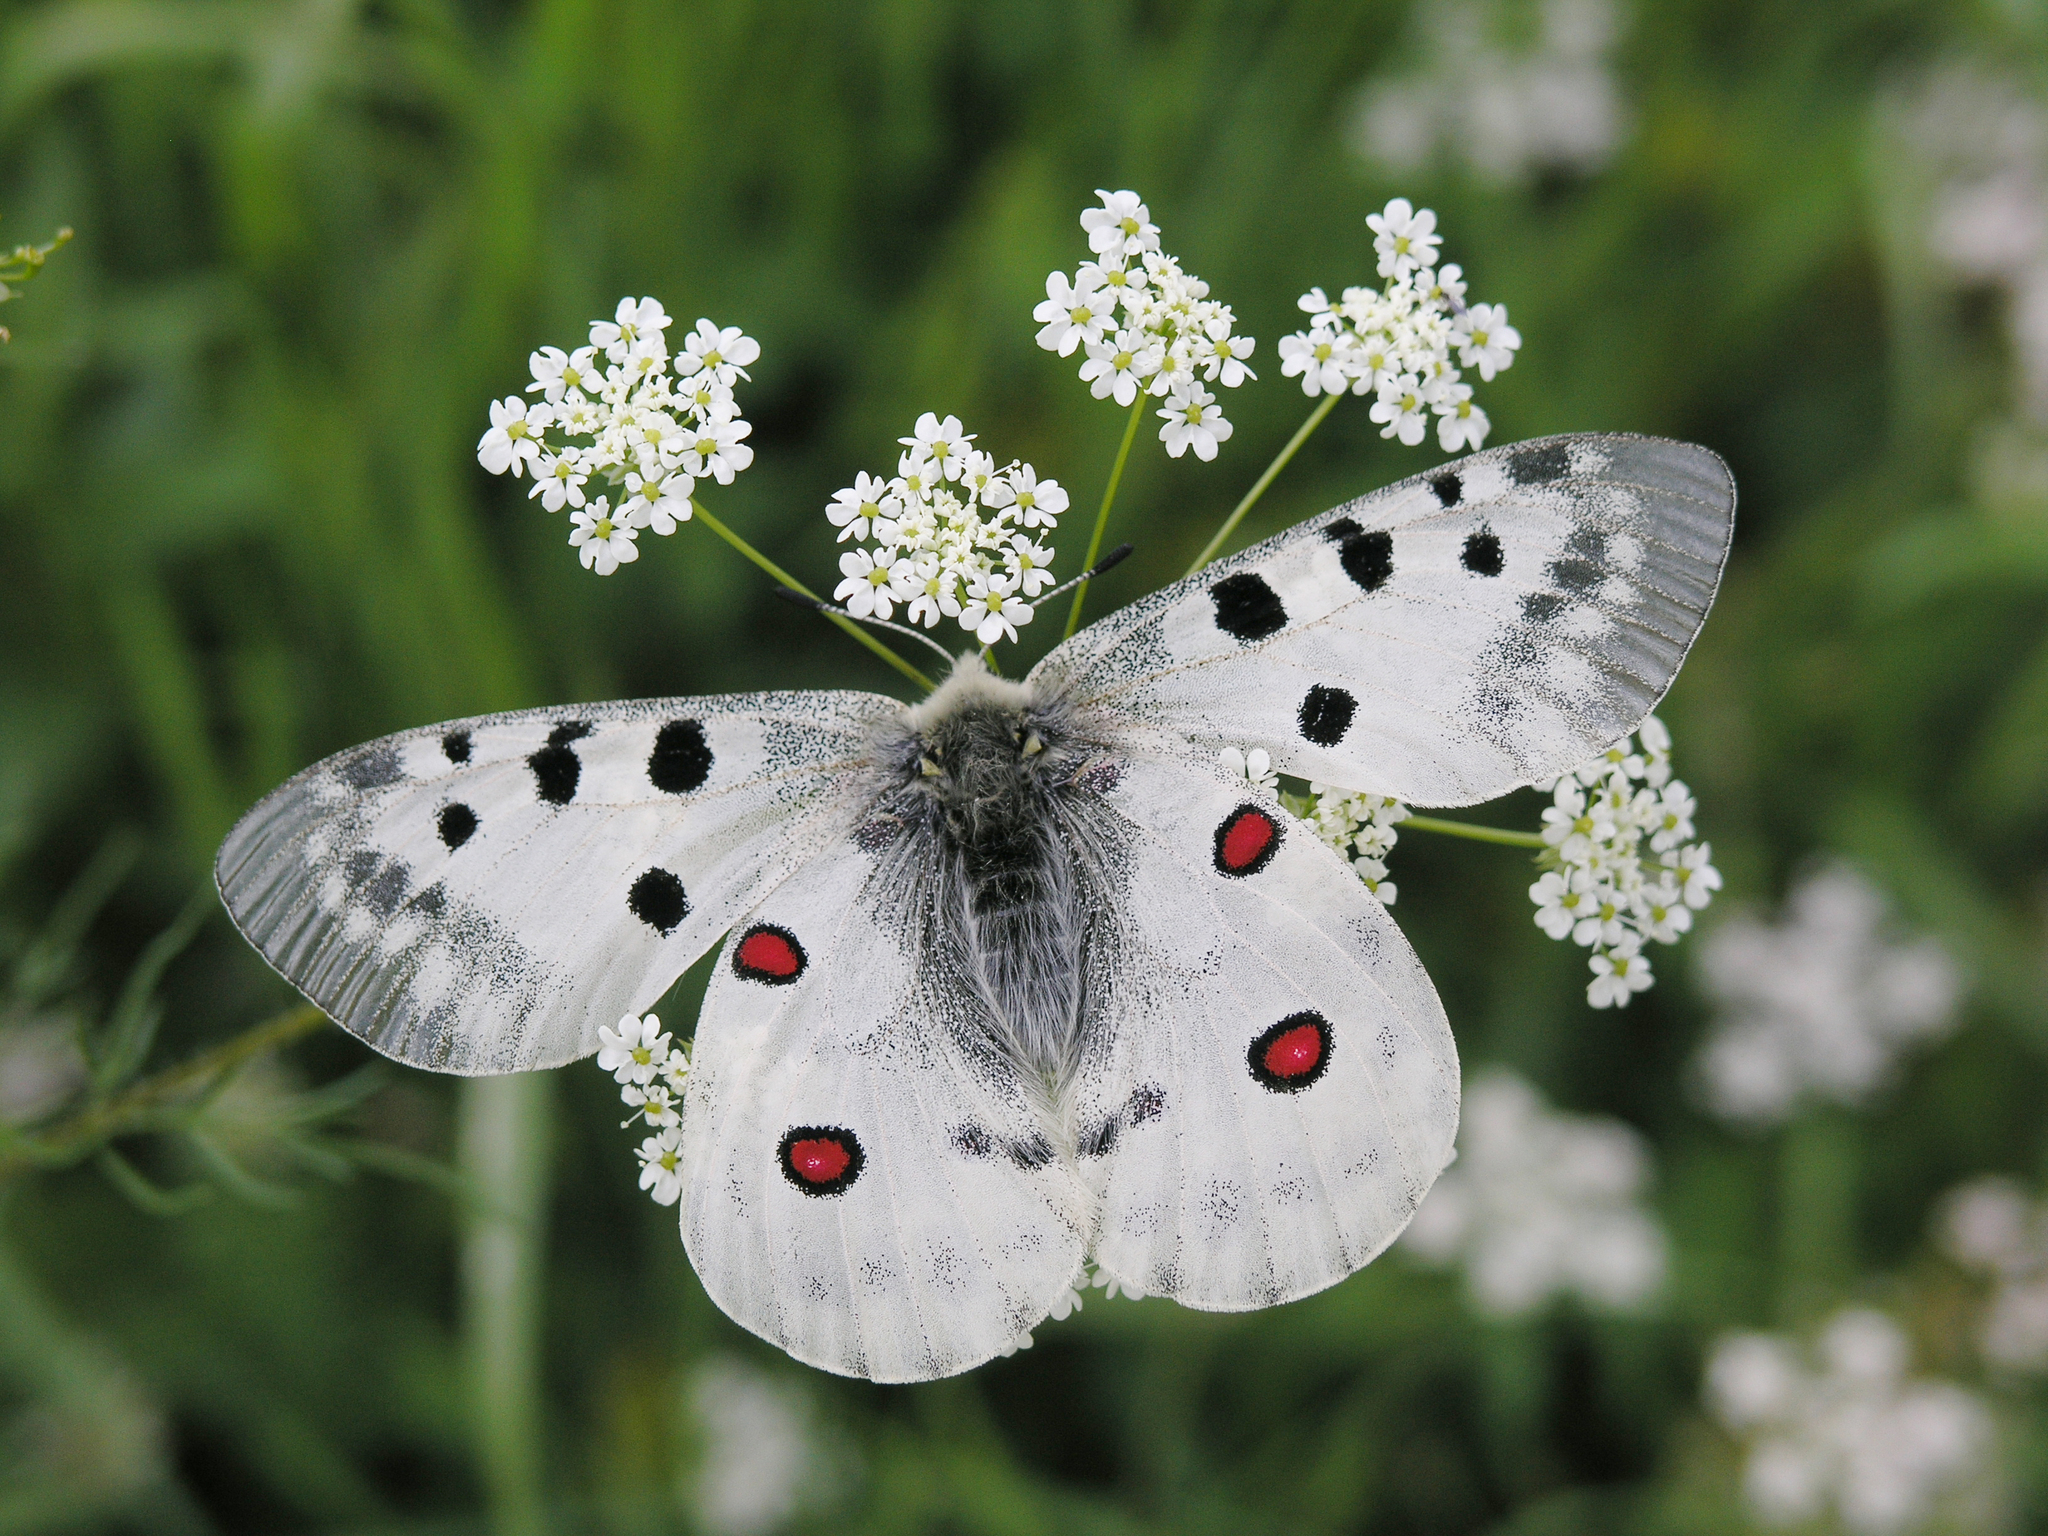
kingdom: Animalia
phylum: Arthropoda
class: Insecta
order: Lepidoptera
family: Papilionidae
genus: Parnassius
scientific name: Parnassius apollo
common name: Apollo
